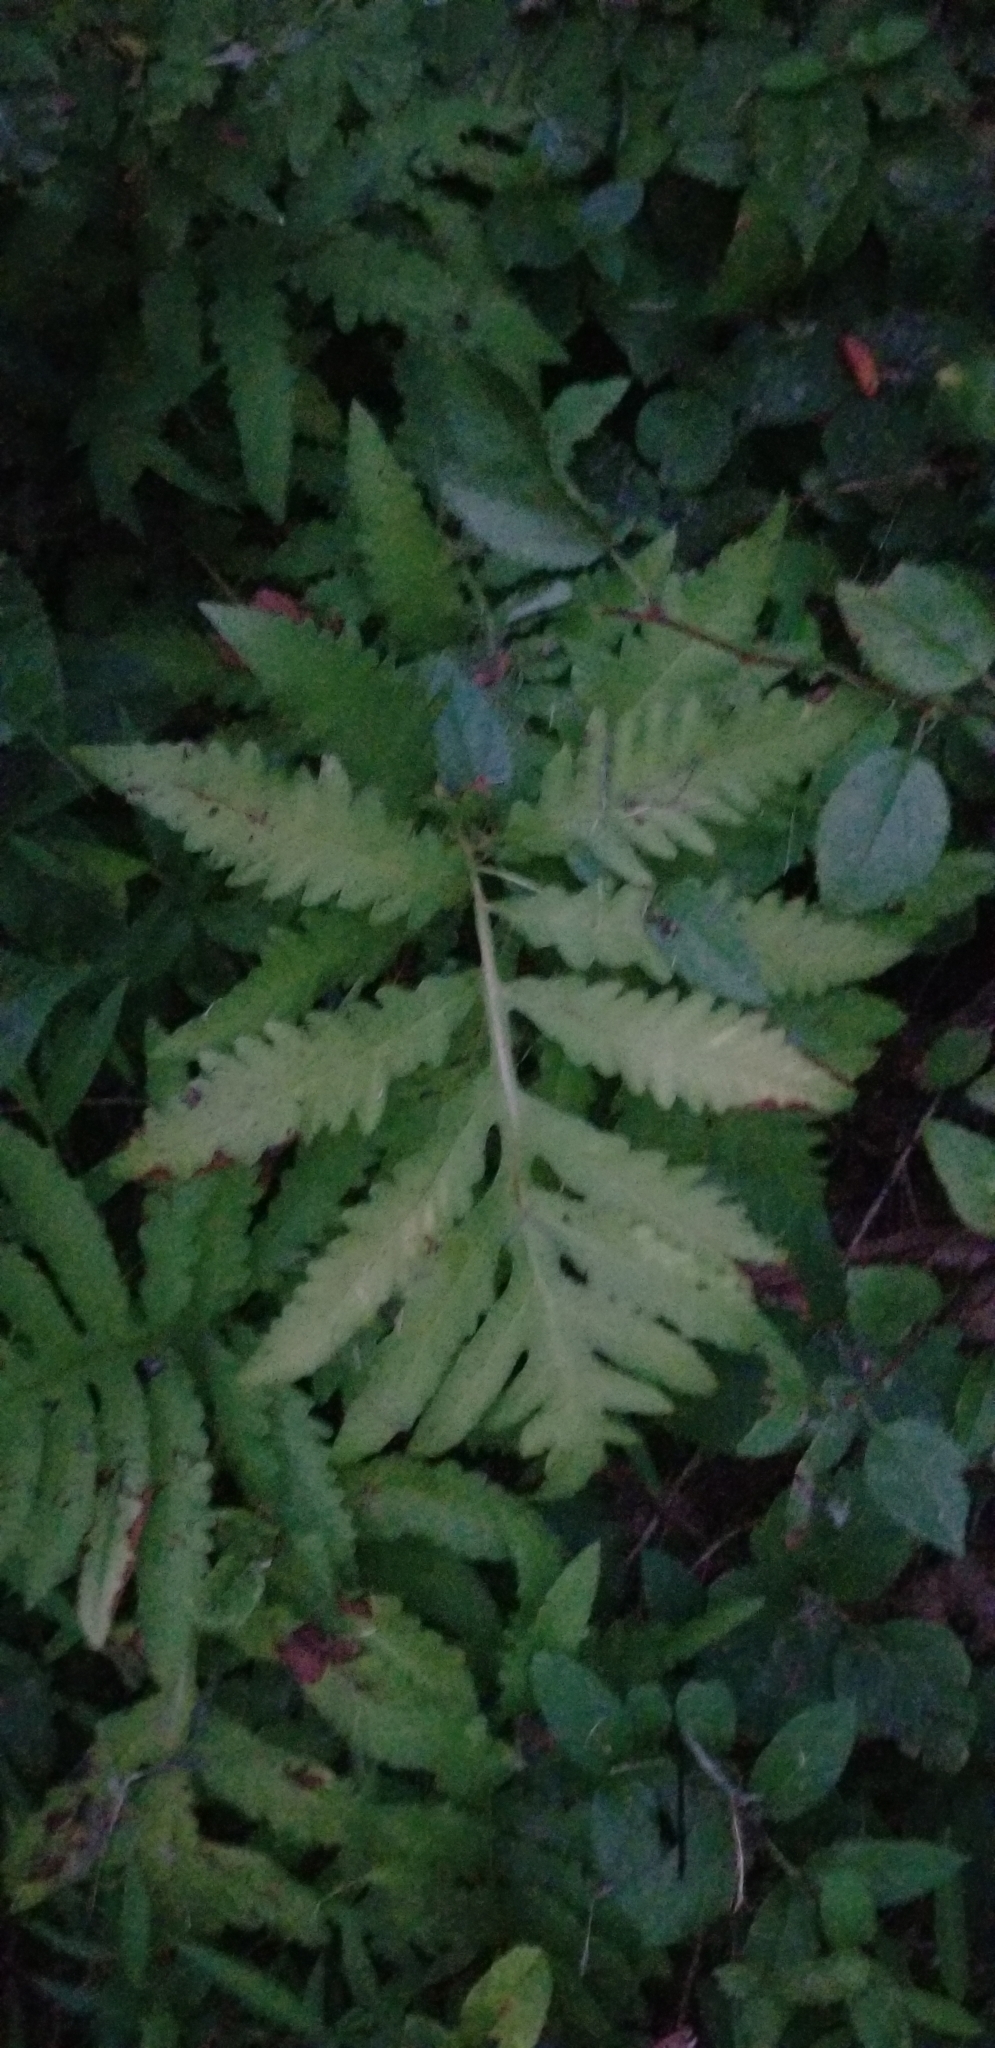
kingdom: Plantae
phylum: Tracheophyta
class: Polypodiopsida
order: Polypodiales
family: Onocleaceae
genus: Onoclea
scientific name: Onoclea sensibilis
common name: Sensitive fern
